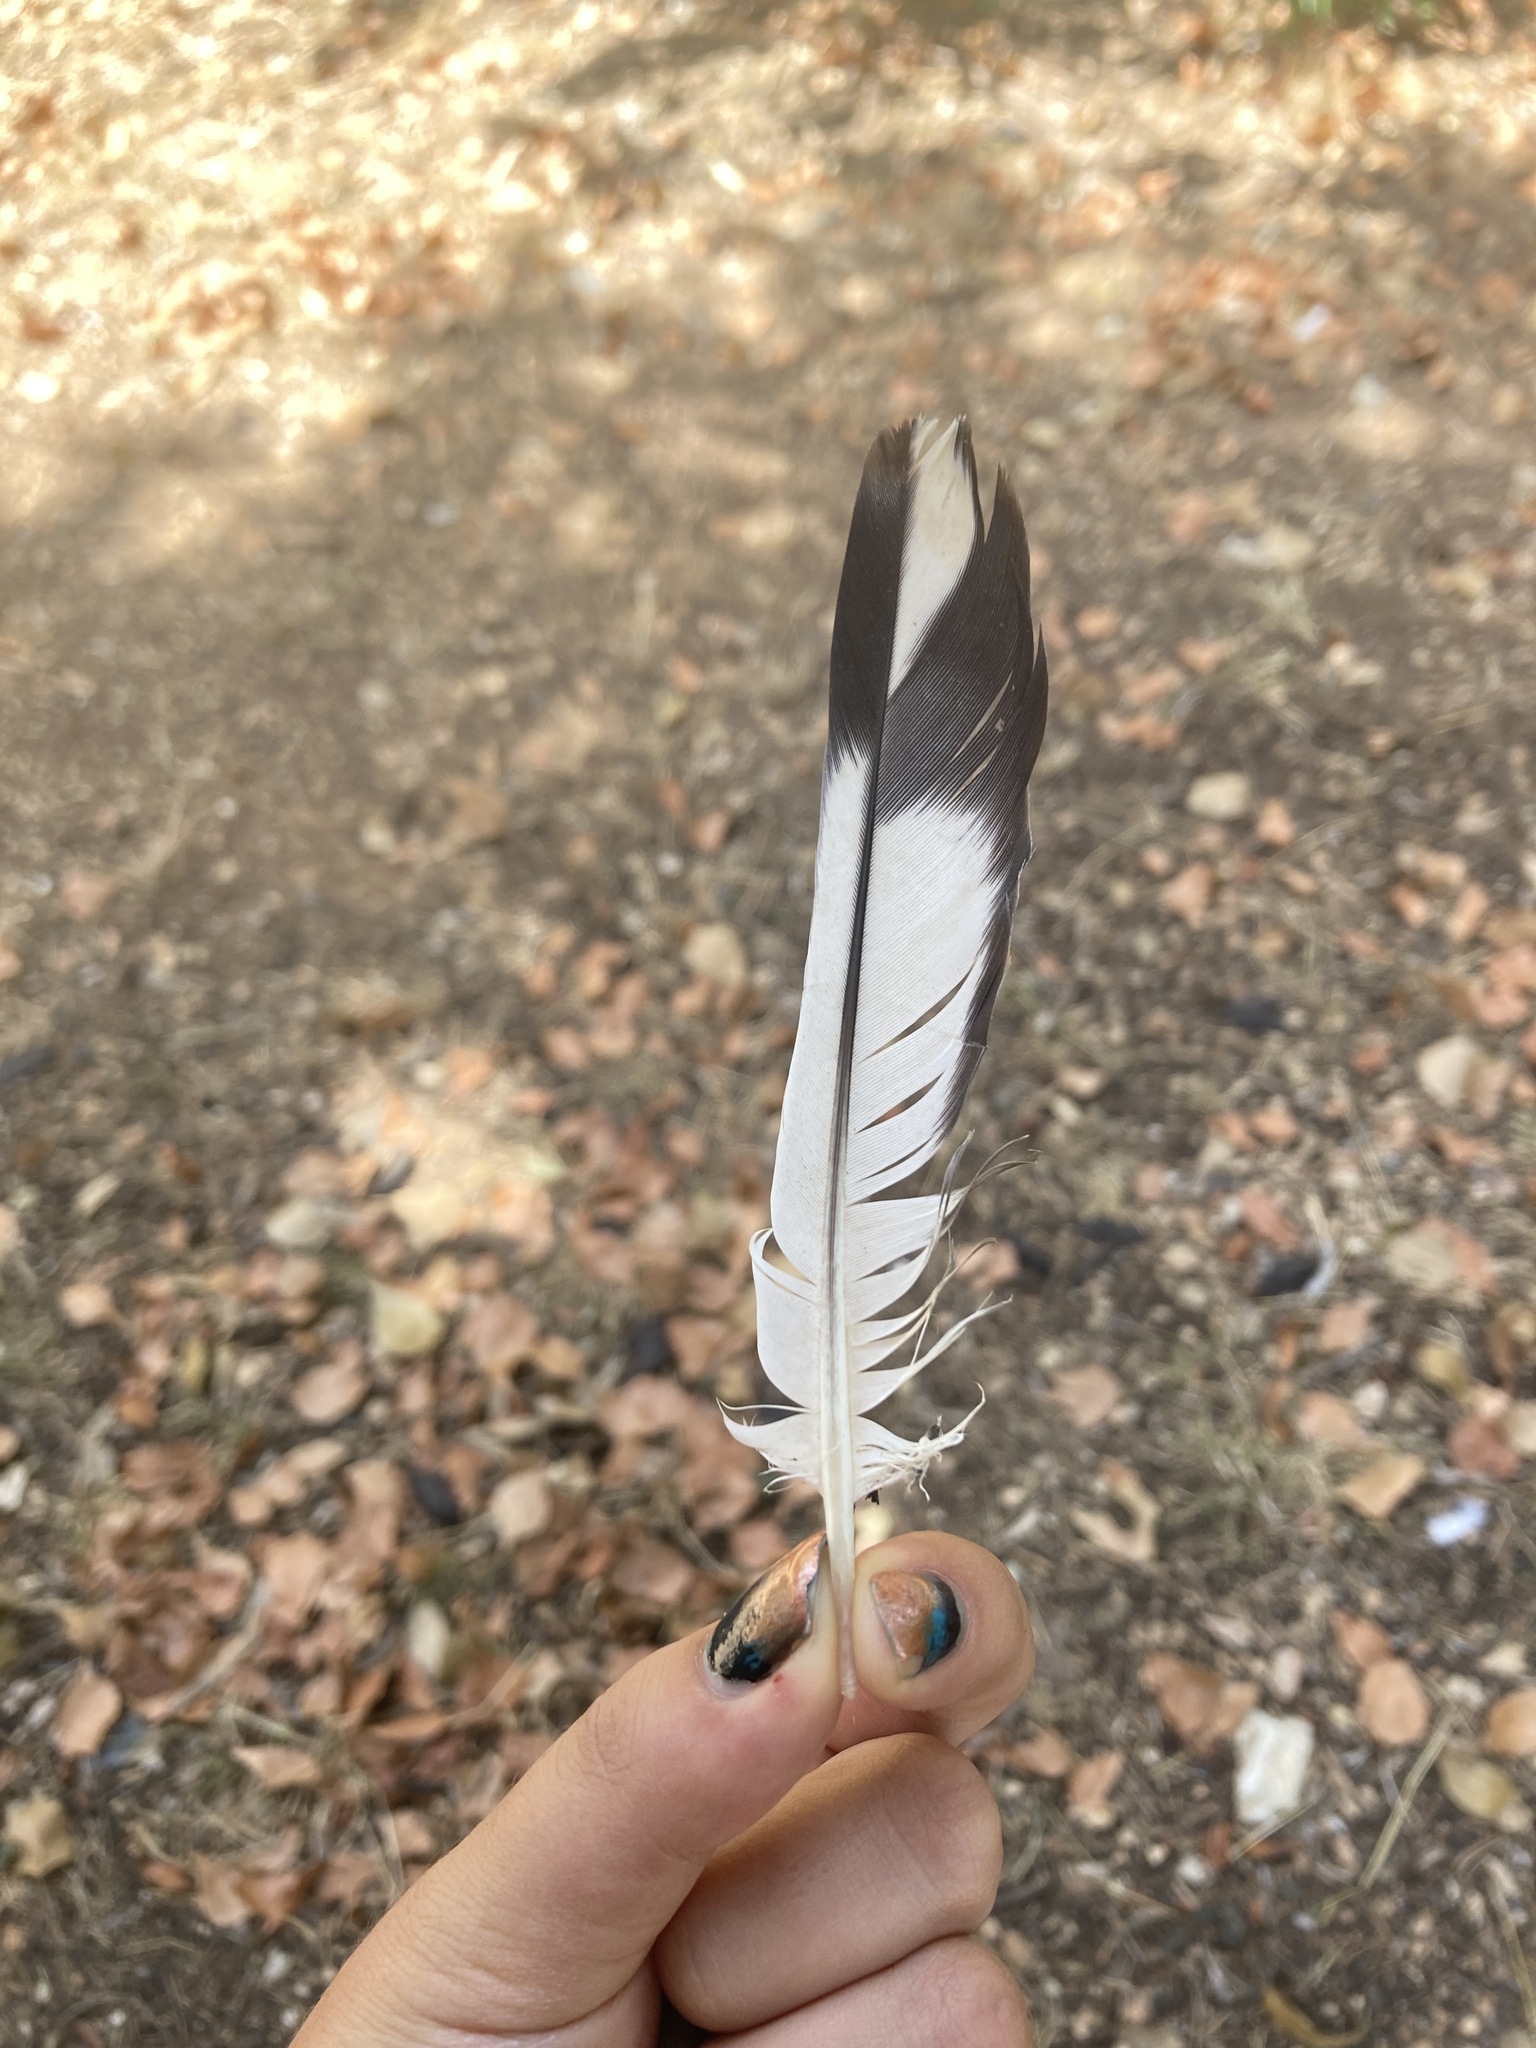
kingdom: Animalia
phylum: Chordata
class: Aves
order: Columbiformes
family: Columbidae
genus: Columba
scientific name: Columba livia
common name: Rock pigeon
